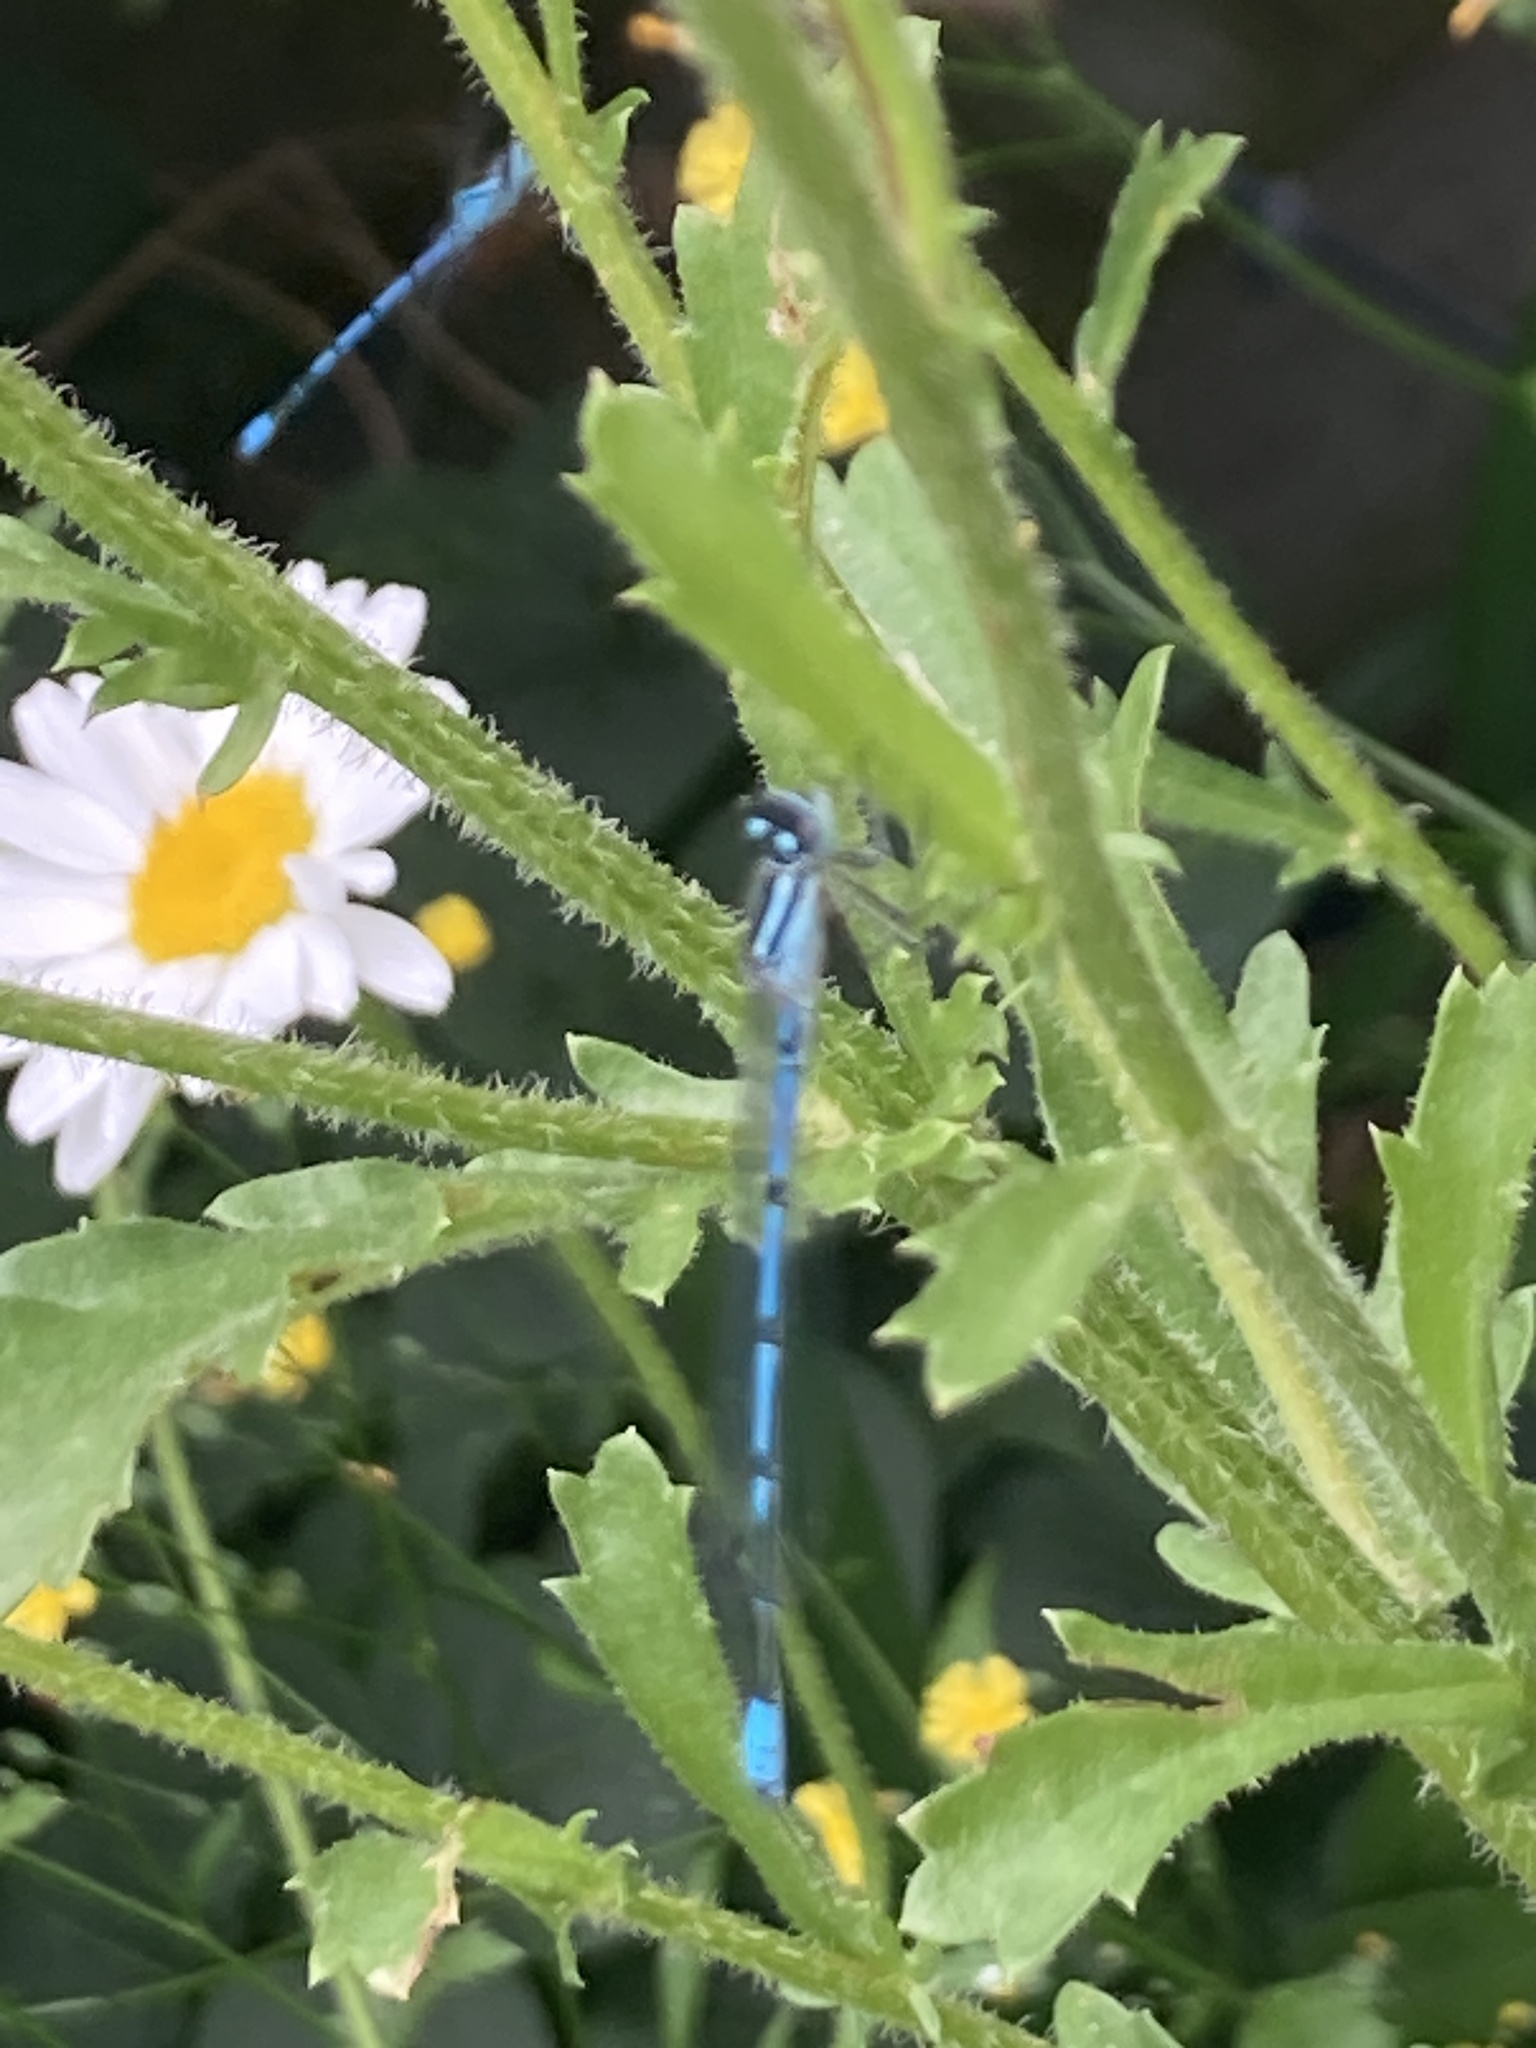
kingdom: Animalia
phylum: Arthropoda
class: Insecta
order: Odonata
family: Coenagrionidae
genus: Coenagrion
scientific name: Coenagrion puella
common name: Azure damselfly
